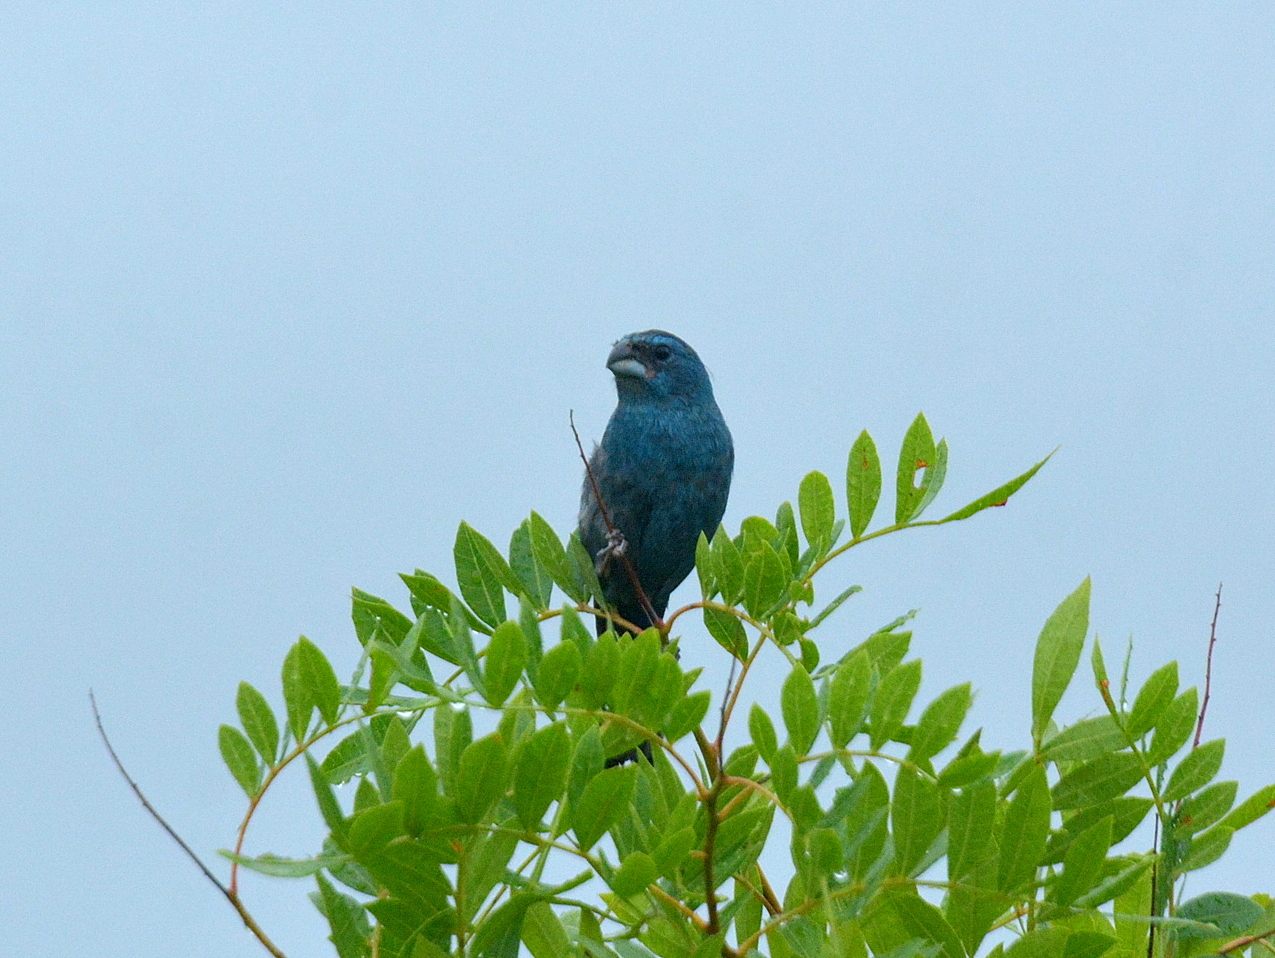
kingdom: Animalia
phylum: Chordata
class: Aves
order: Passeriformes
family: Cardinalidae
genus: Cyanoloxia
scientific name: Cyanoloxia glaucocaerulea
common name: Glaucous-blue grosbeak
